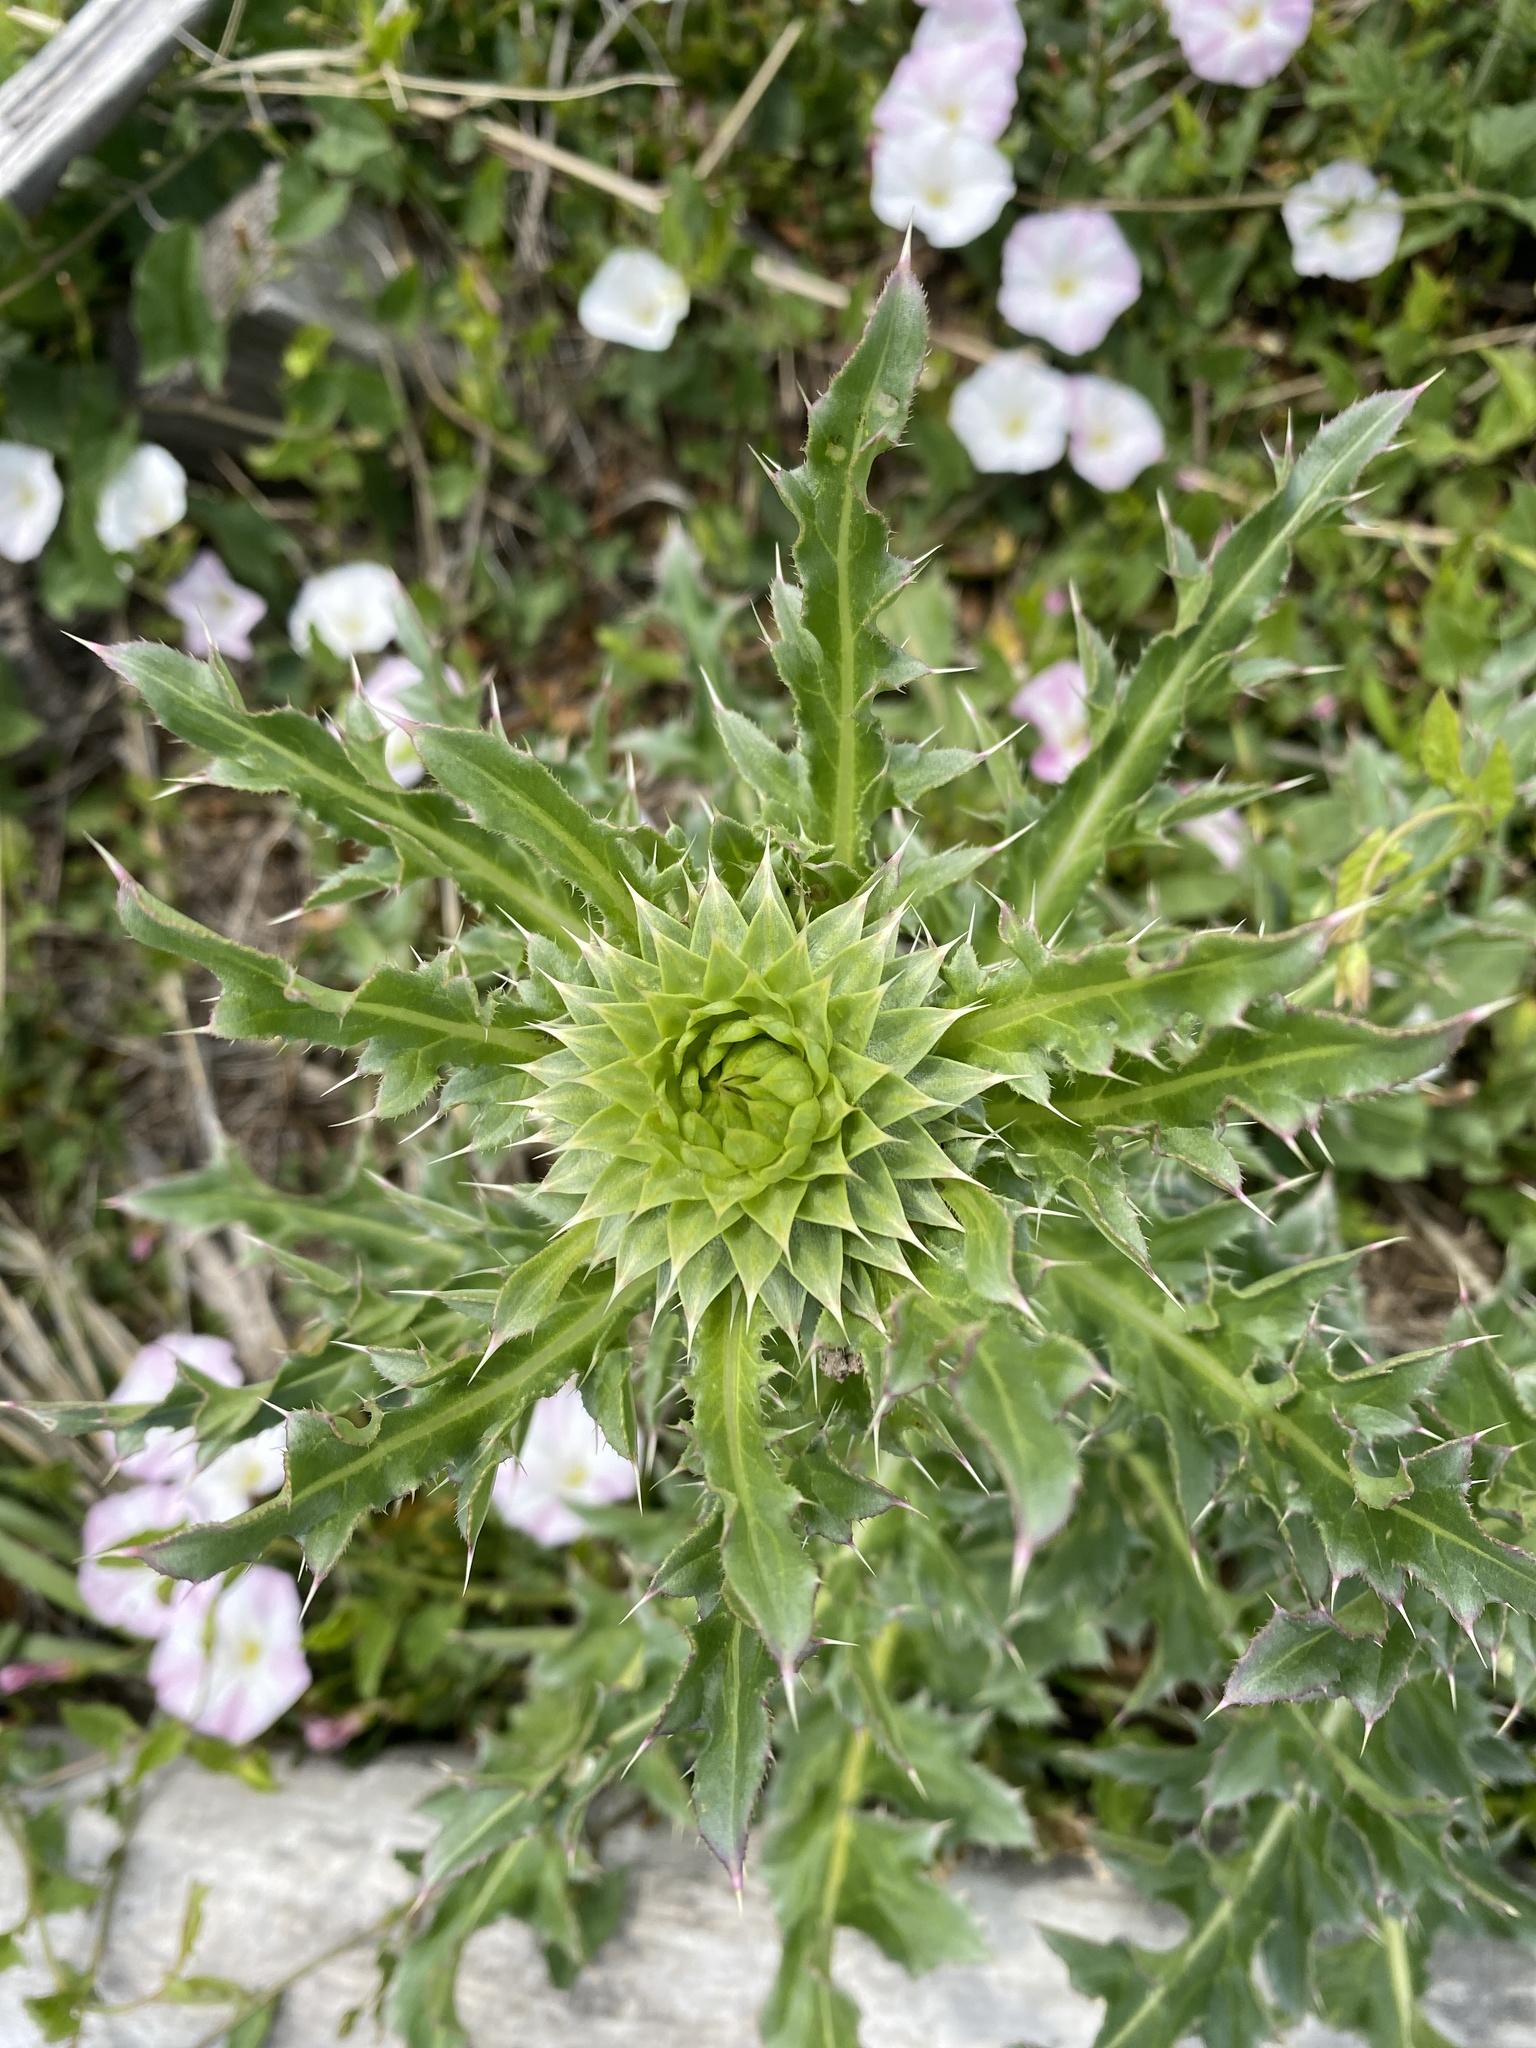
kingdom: Plantae
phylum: Tracheophyta
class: Magnoliopsida
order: Asterales
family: Asteraceae
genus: Carduus
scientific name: Carduus nutans
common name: Musk thistle
